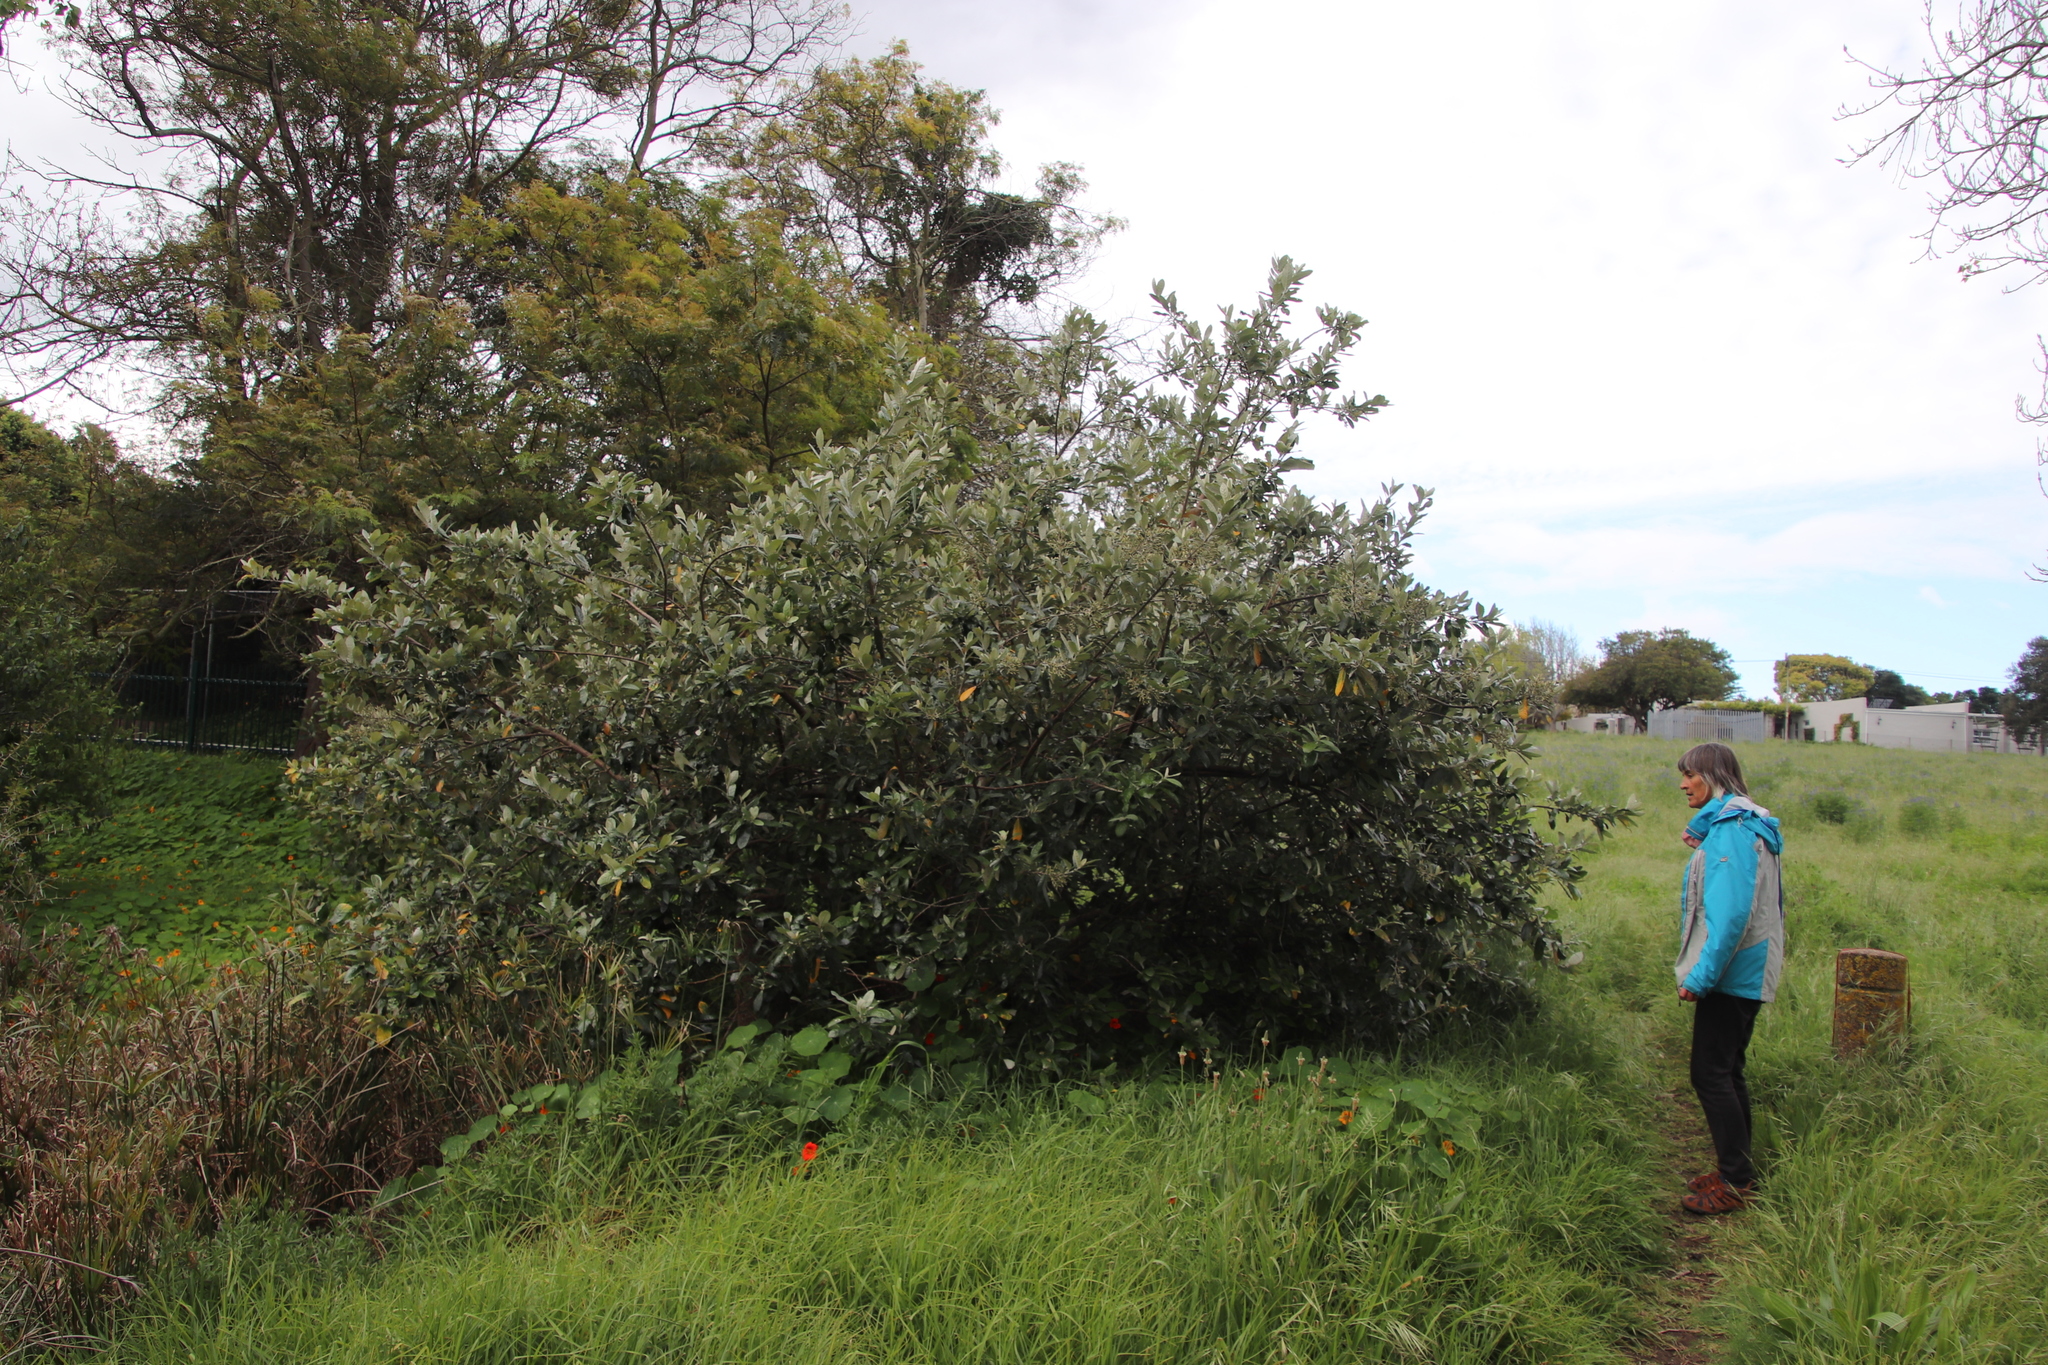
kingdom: Plantae
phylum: Tracheophyta
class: Magnoliopsida
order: Asterales
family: Asteraceae
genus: Brachylaena
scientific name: Brachylaena discolor
